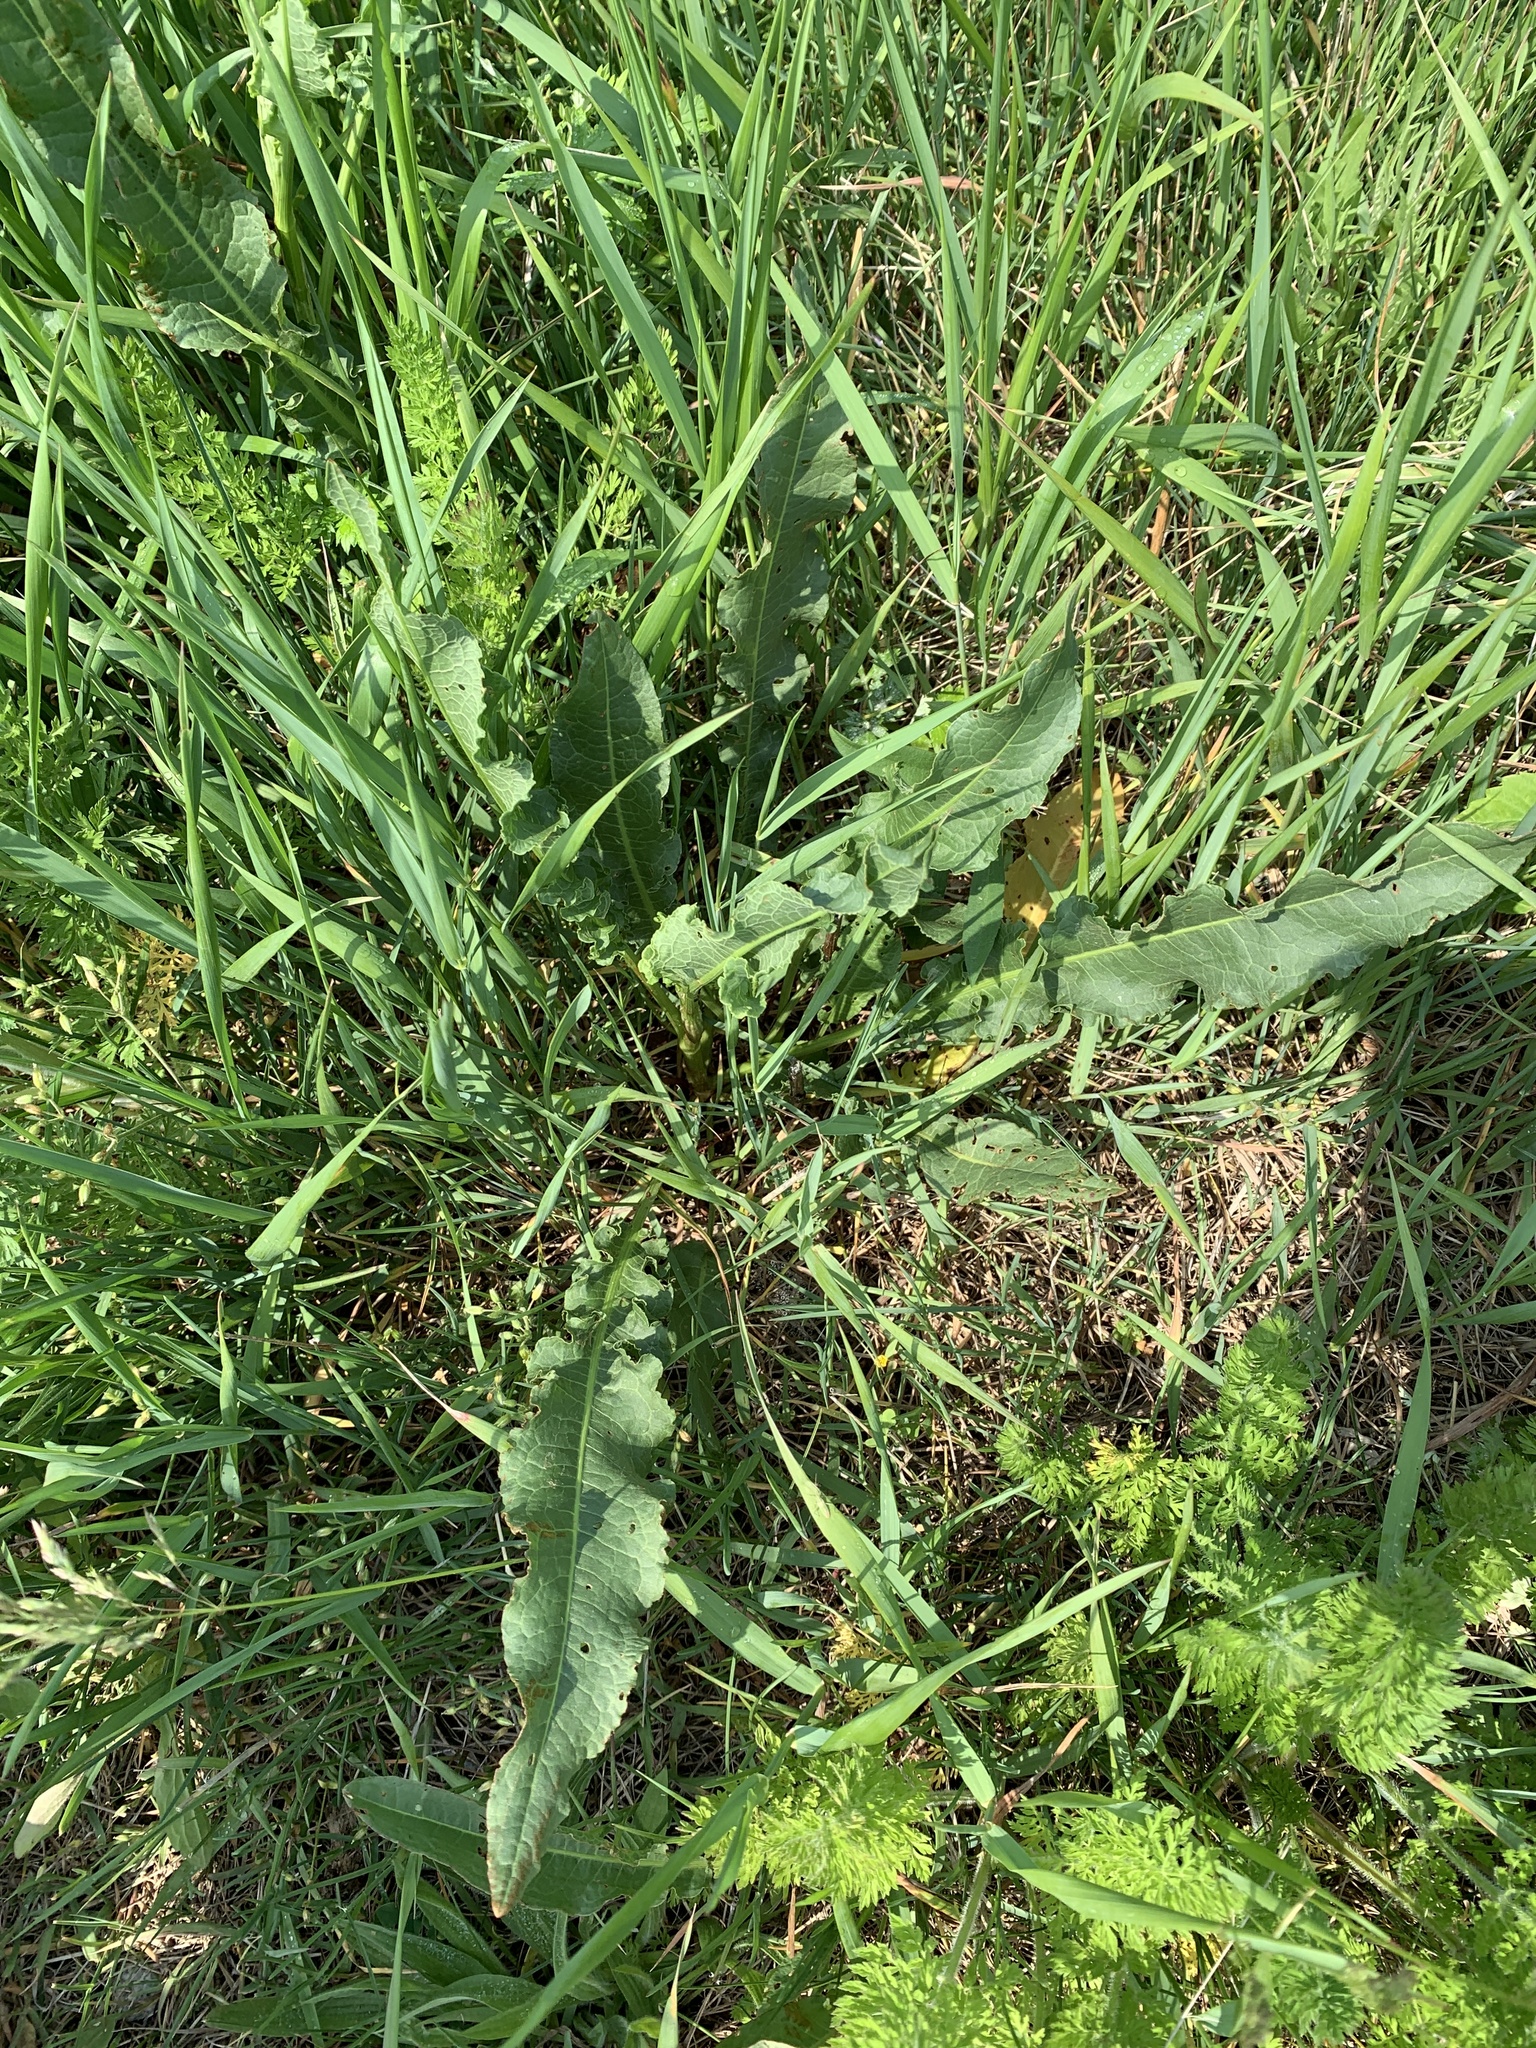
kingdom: Plantae
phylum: Tracheophyta
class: Magnoliopsida
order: Caryophyllales
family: Polygonaceae
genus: Rumex
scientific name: Rumex crispus
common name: Curled dock
